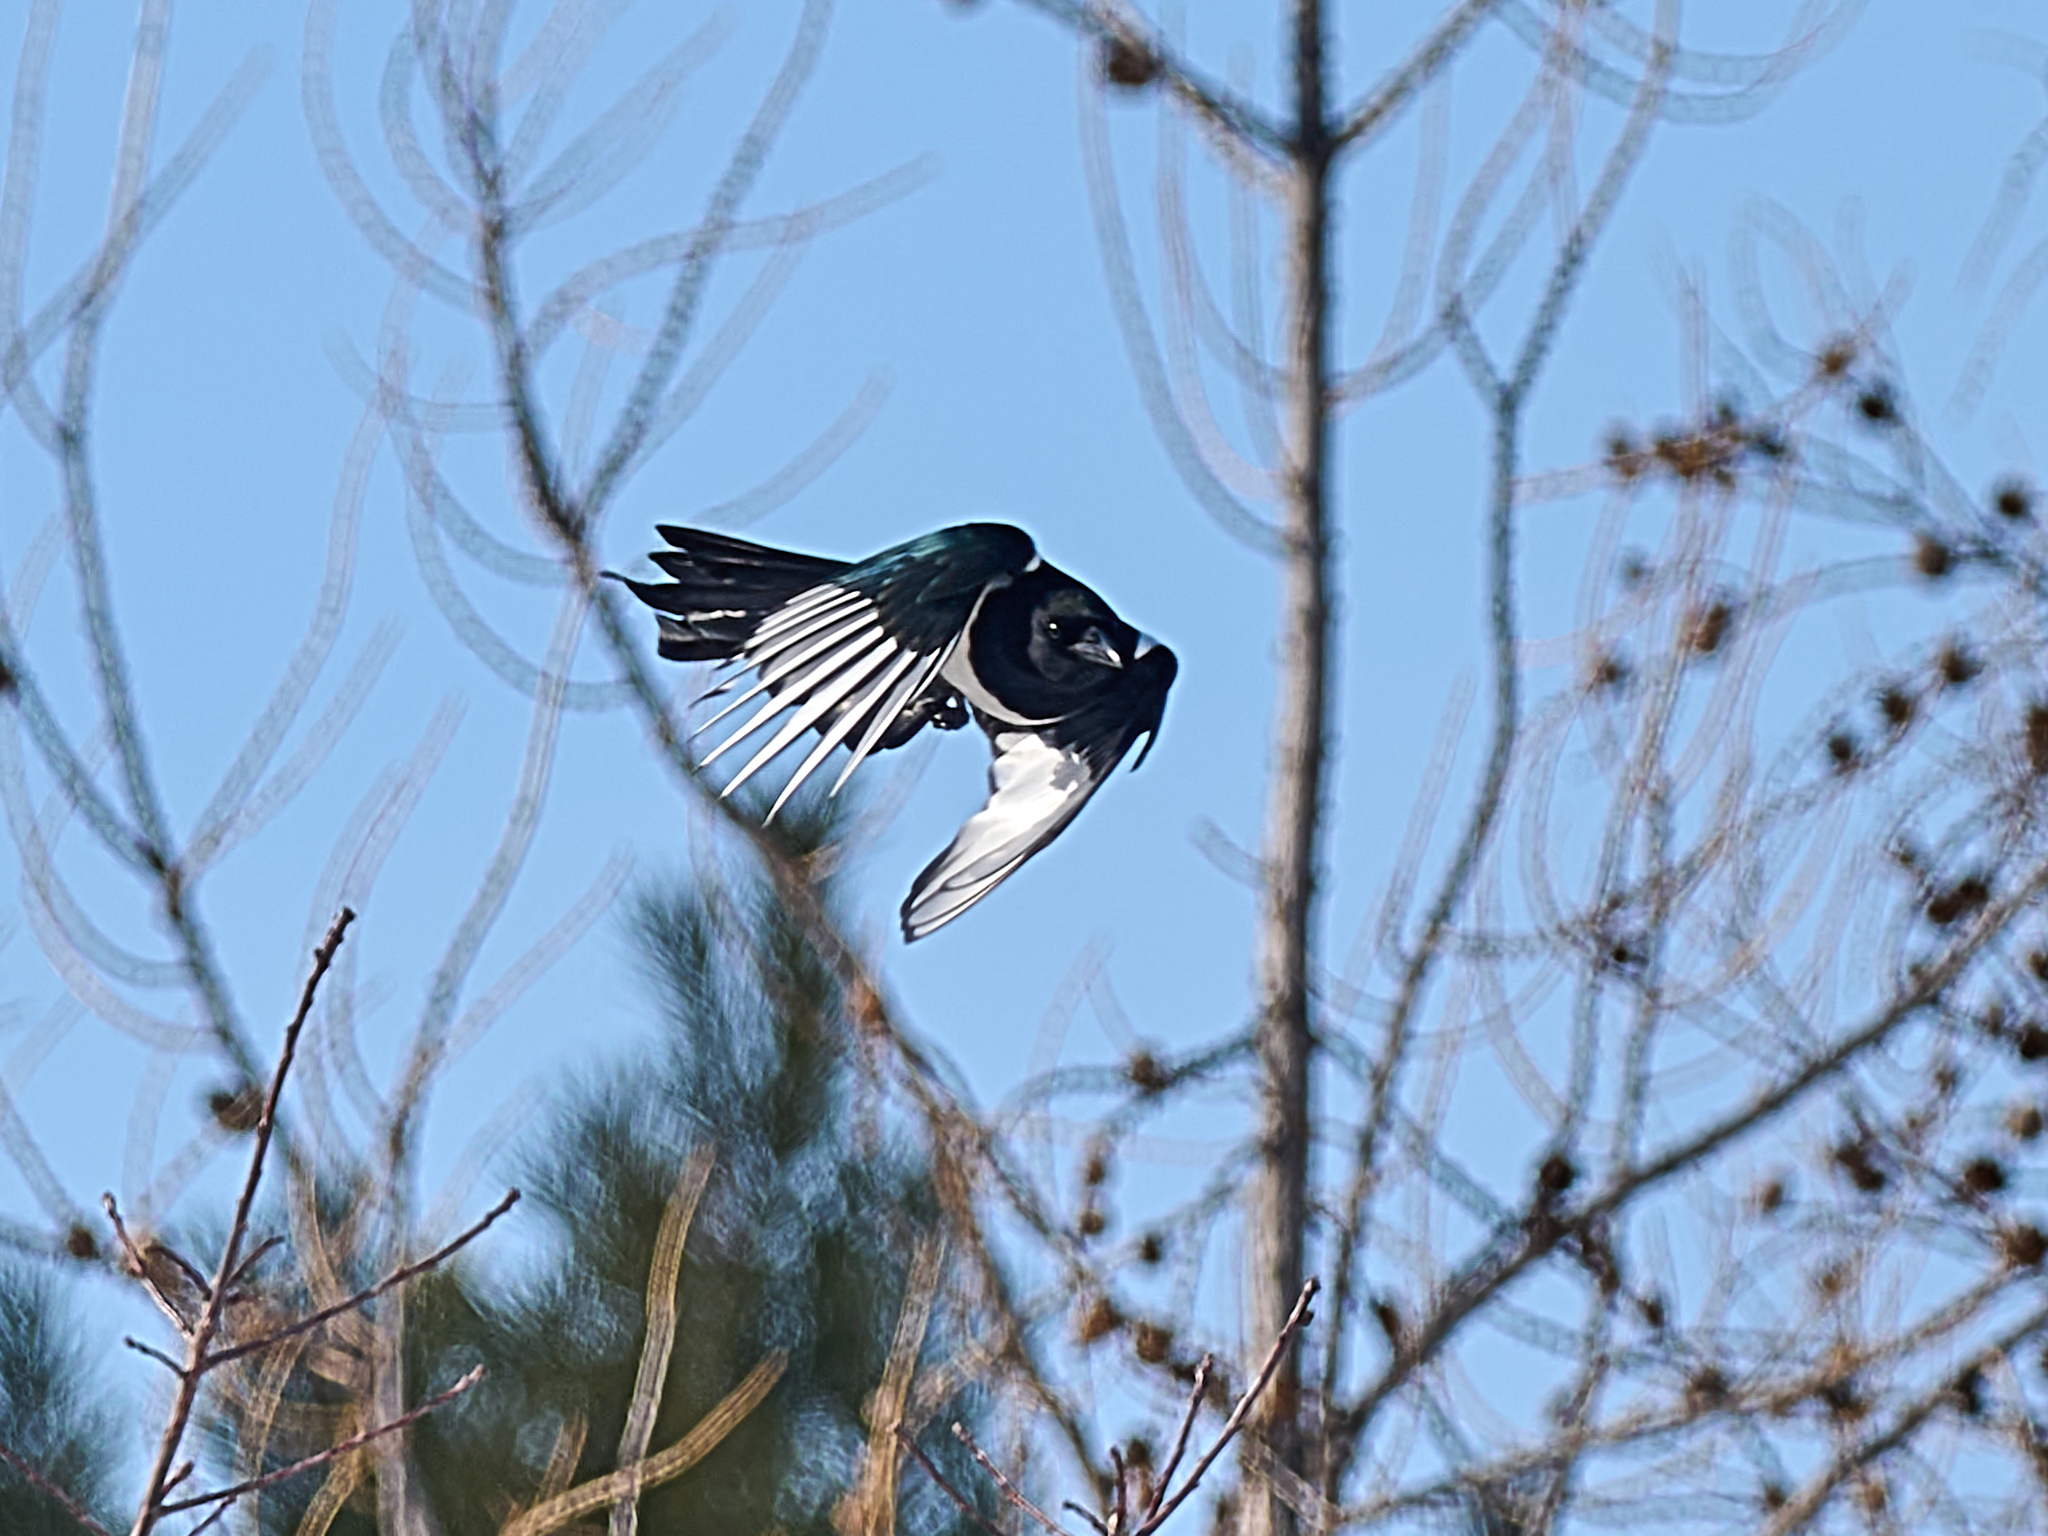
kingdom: Animalia
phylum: Chordata
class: Aves
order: Passeriformes
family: Corvidae
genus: Pica
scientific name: Pica pica
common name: Eurasian magpie
